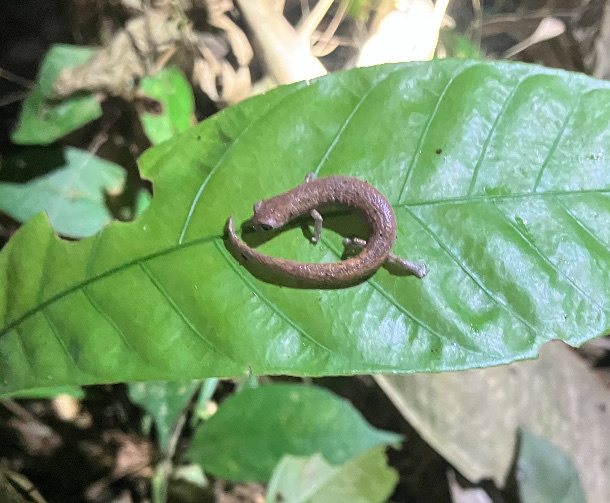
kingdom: Animalia
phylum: Chordata
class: Amphibia
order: Caudata
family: Plethodontidae
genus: Bolitoglossa
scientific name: Bolitoglossa altamazonica
